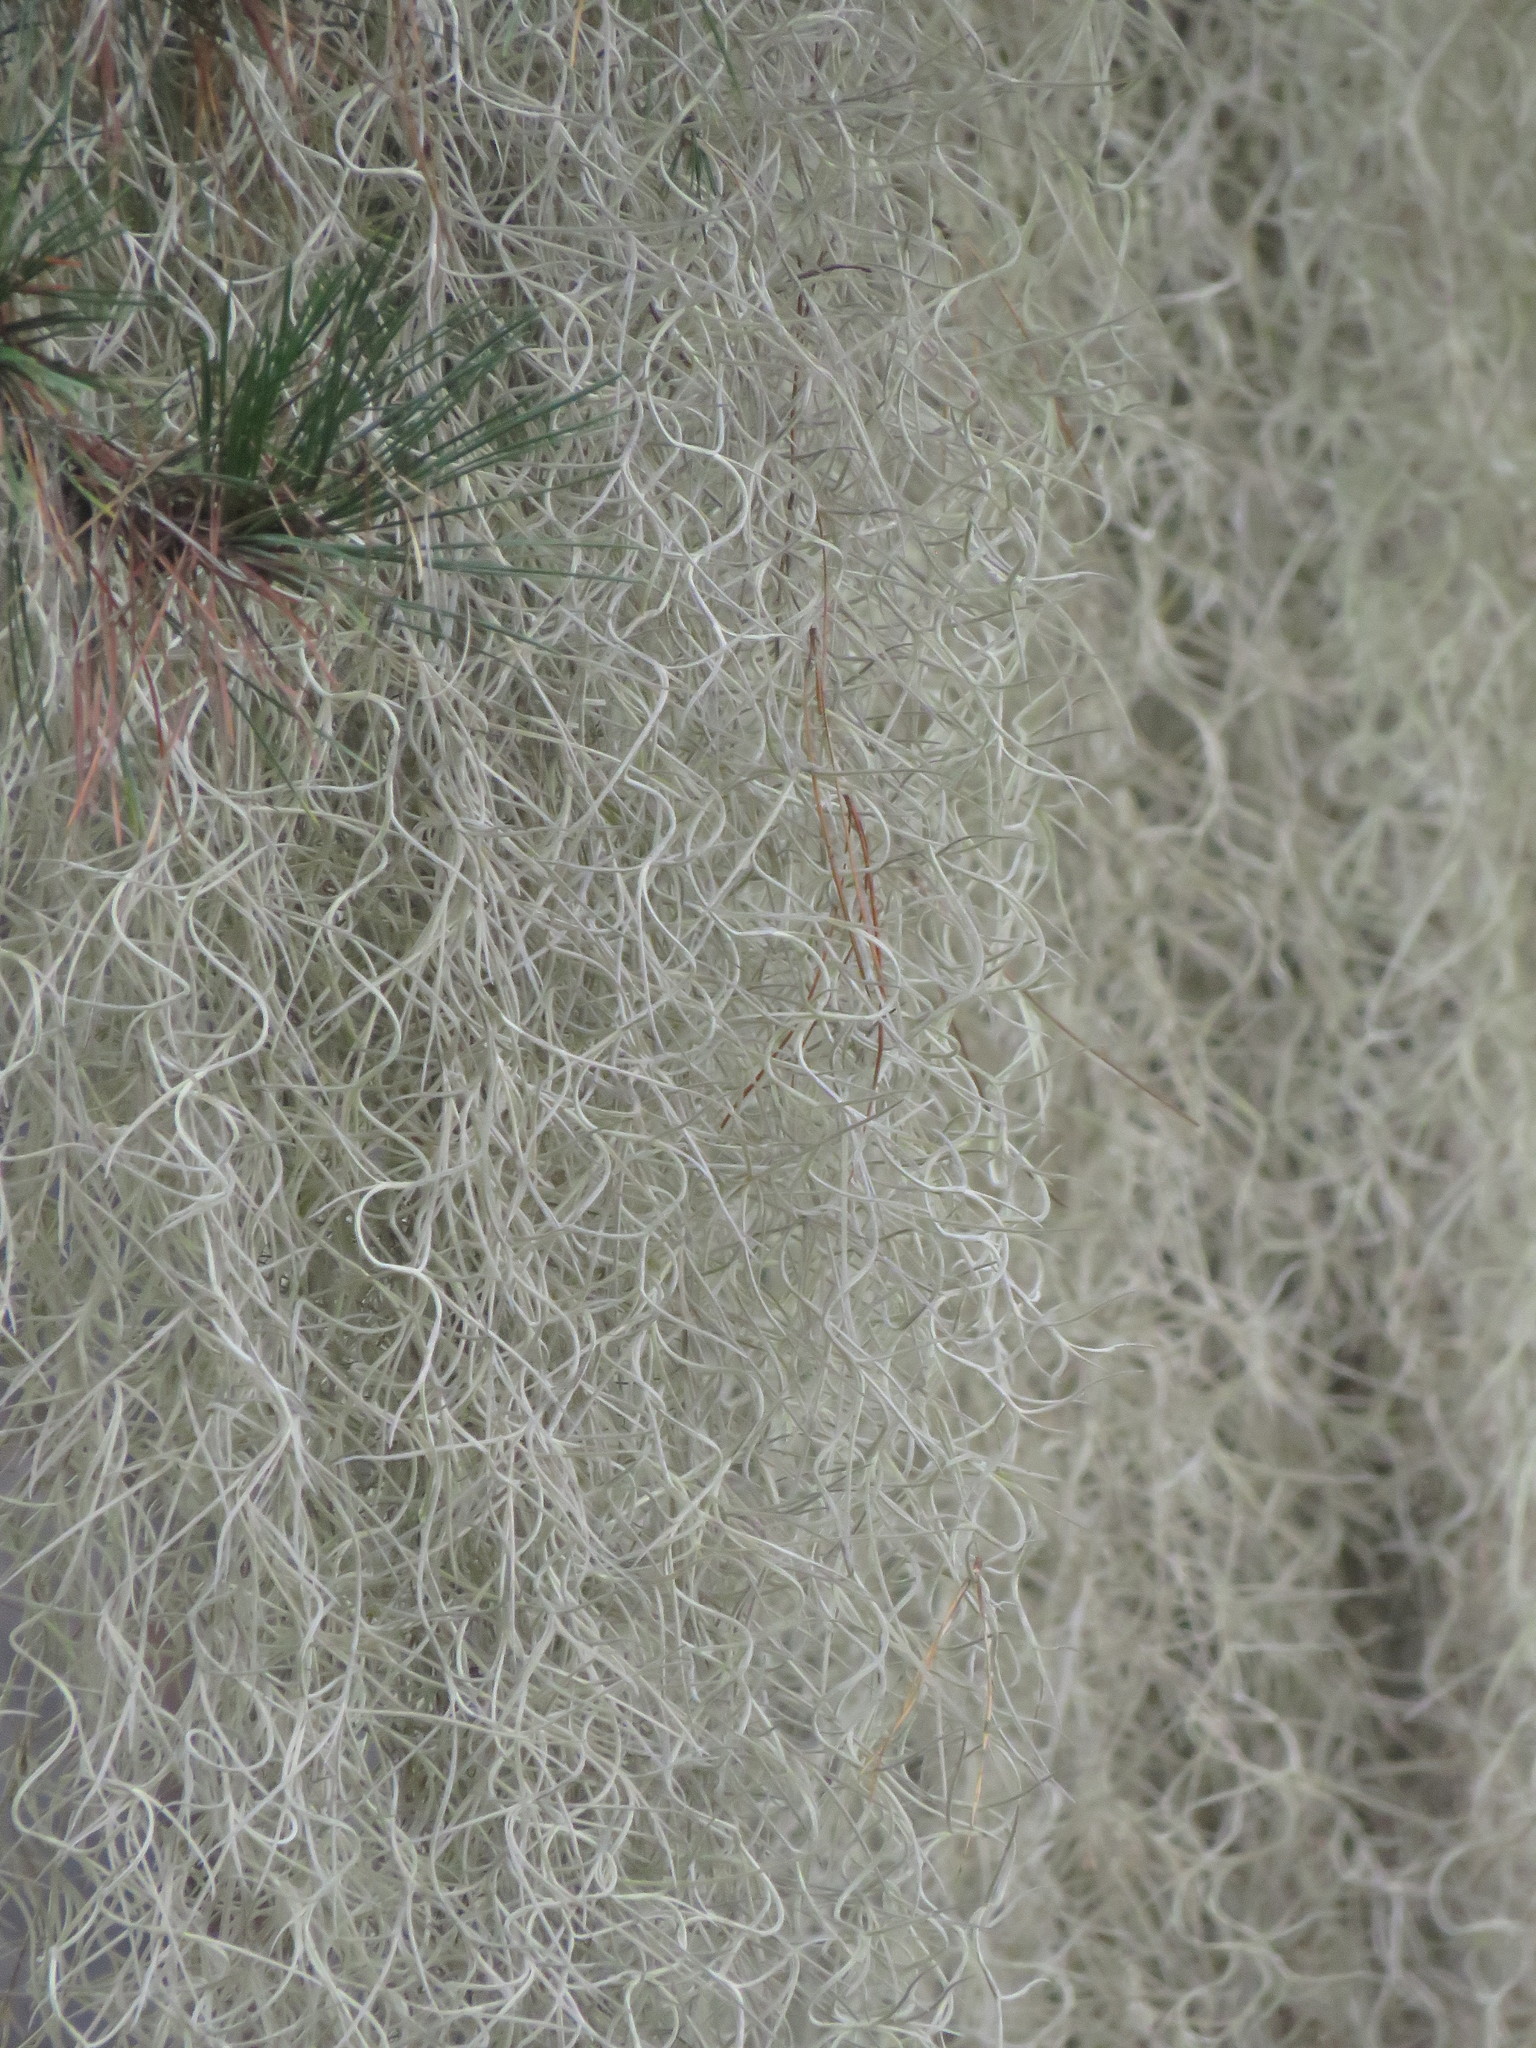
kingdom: Plantae
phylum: Tracheophyta
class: Liliopsida
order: Poales
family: Bromeliaceae
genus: Tillandsia
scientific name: Tillandsia usneoides
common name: Spanish moss
